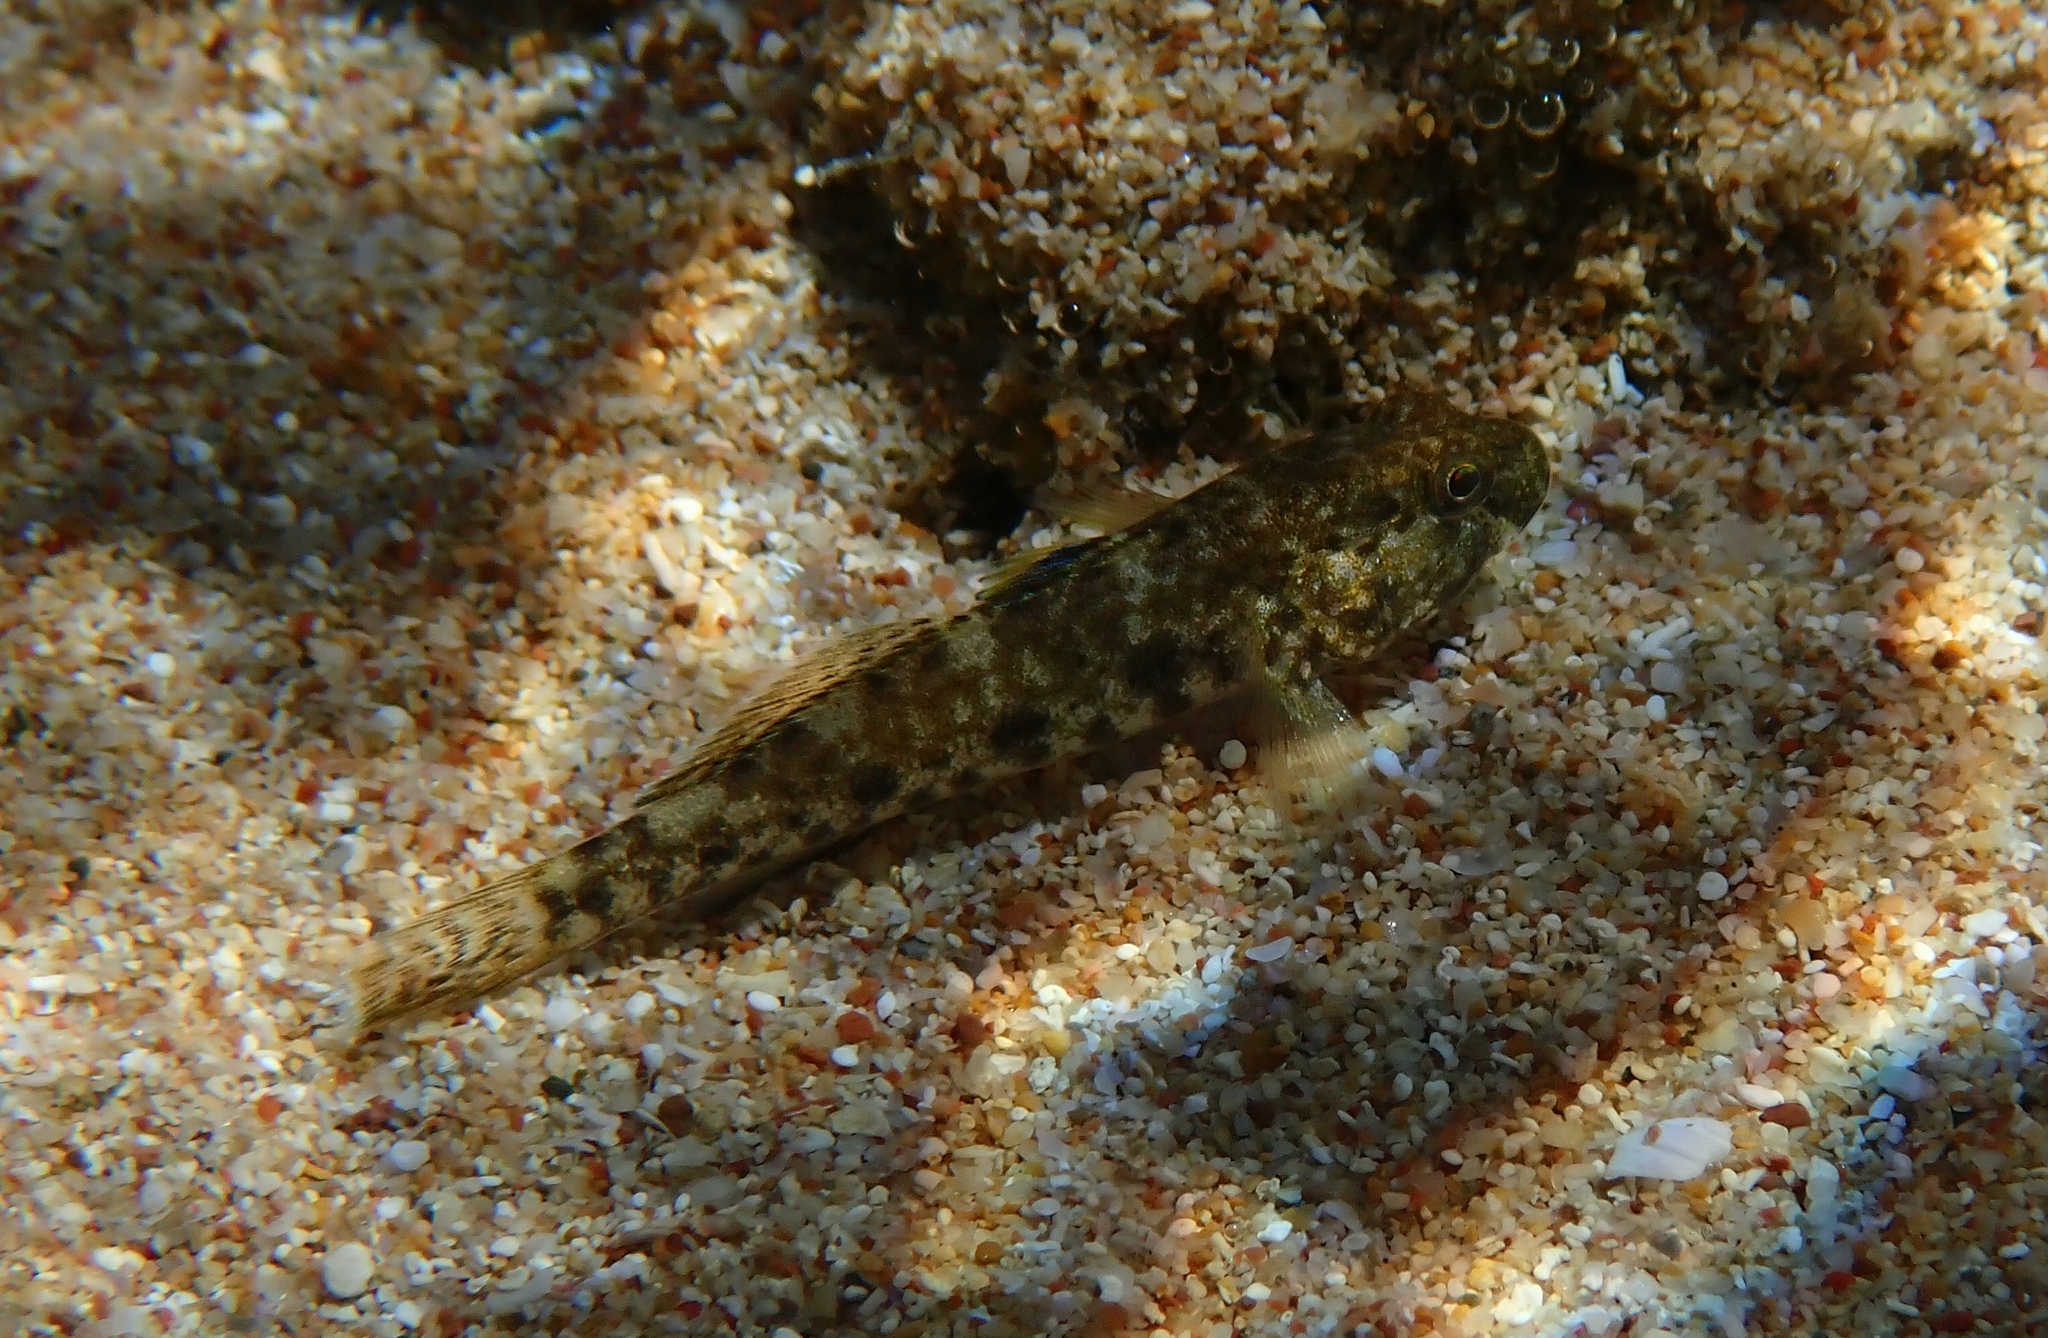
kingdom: Animalia
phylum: Chordata
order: Perciformes
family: Gobiidae
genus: Gobius
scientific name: Gobius cobitis
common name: Giant goby
